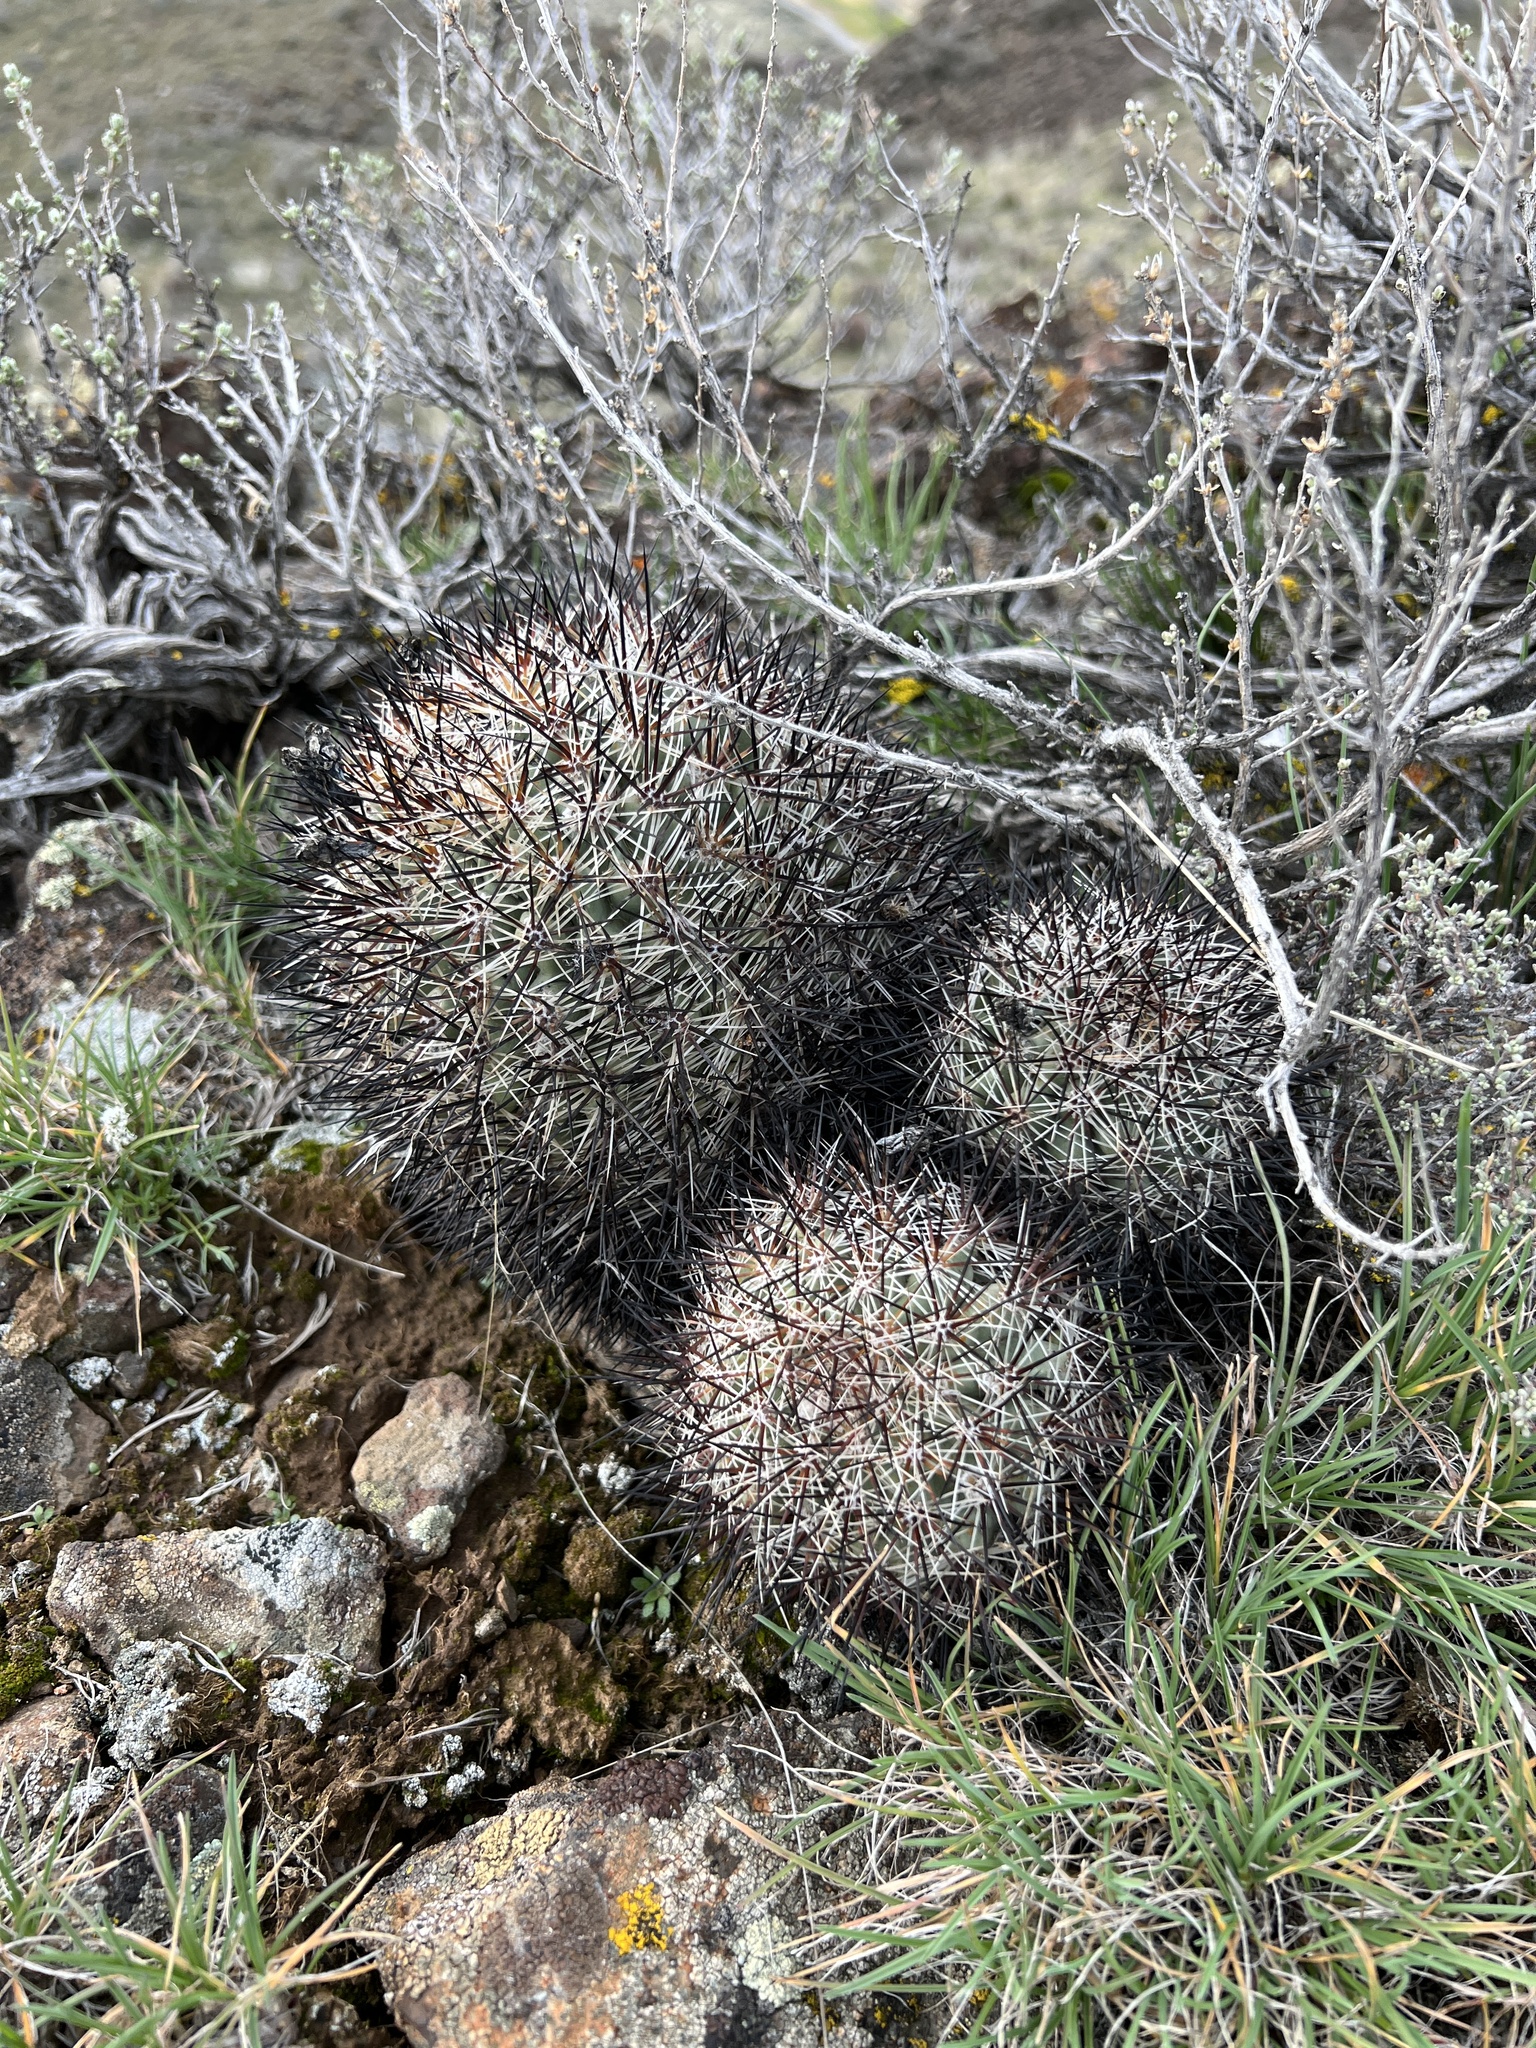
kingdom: Plantae
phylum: Tracheophyta
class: Magnoliopsida
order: Caryophyllales
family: Cactaceae
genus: Pediocactus
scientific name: Pediocactus nigrispinus
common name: Simpson's hedgehog cactus
